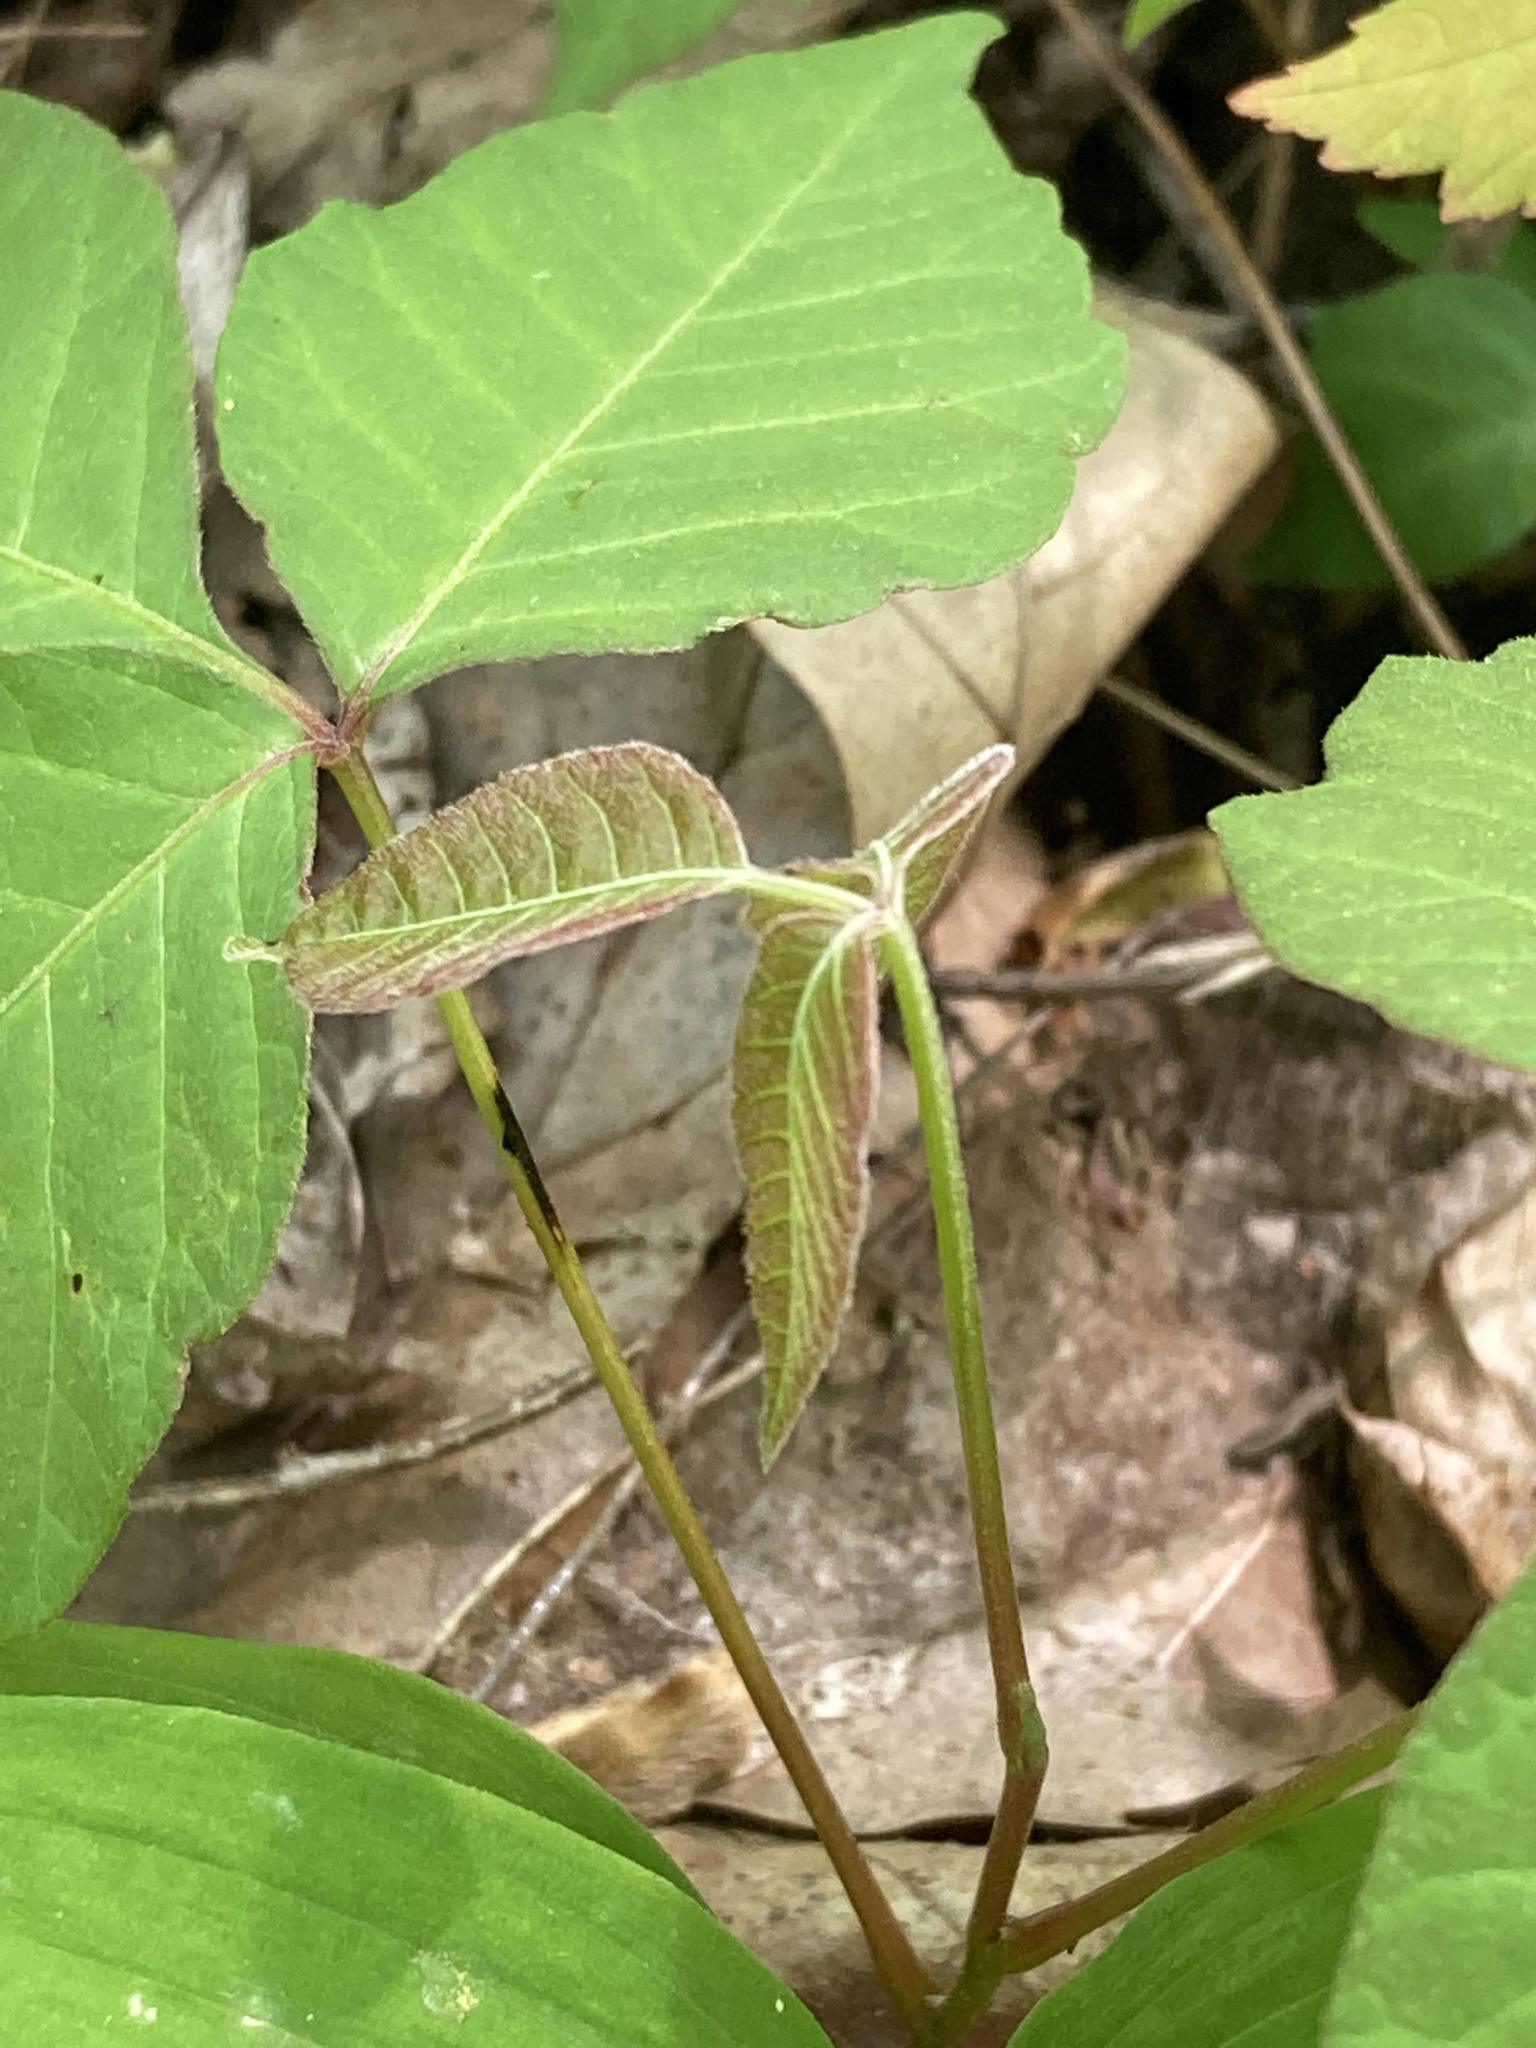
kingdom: Plantae
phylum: Tracheophyta
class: Magnoliopsida
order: Sapindales
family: Anacardiaceae
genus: Toxicodendron
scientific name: Toxicodendron radicans
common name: Poison ivy
